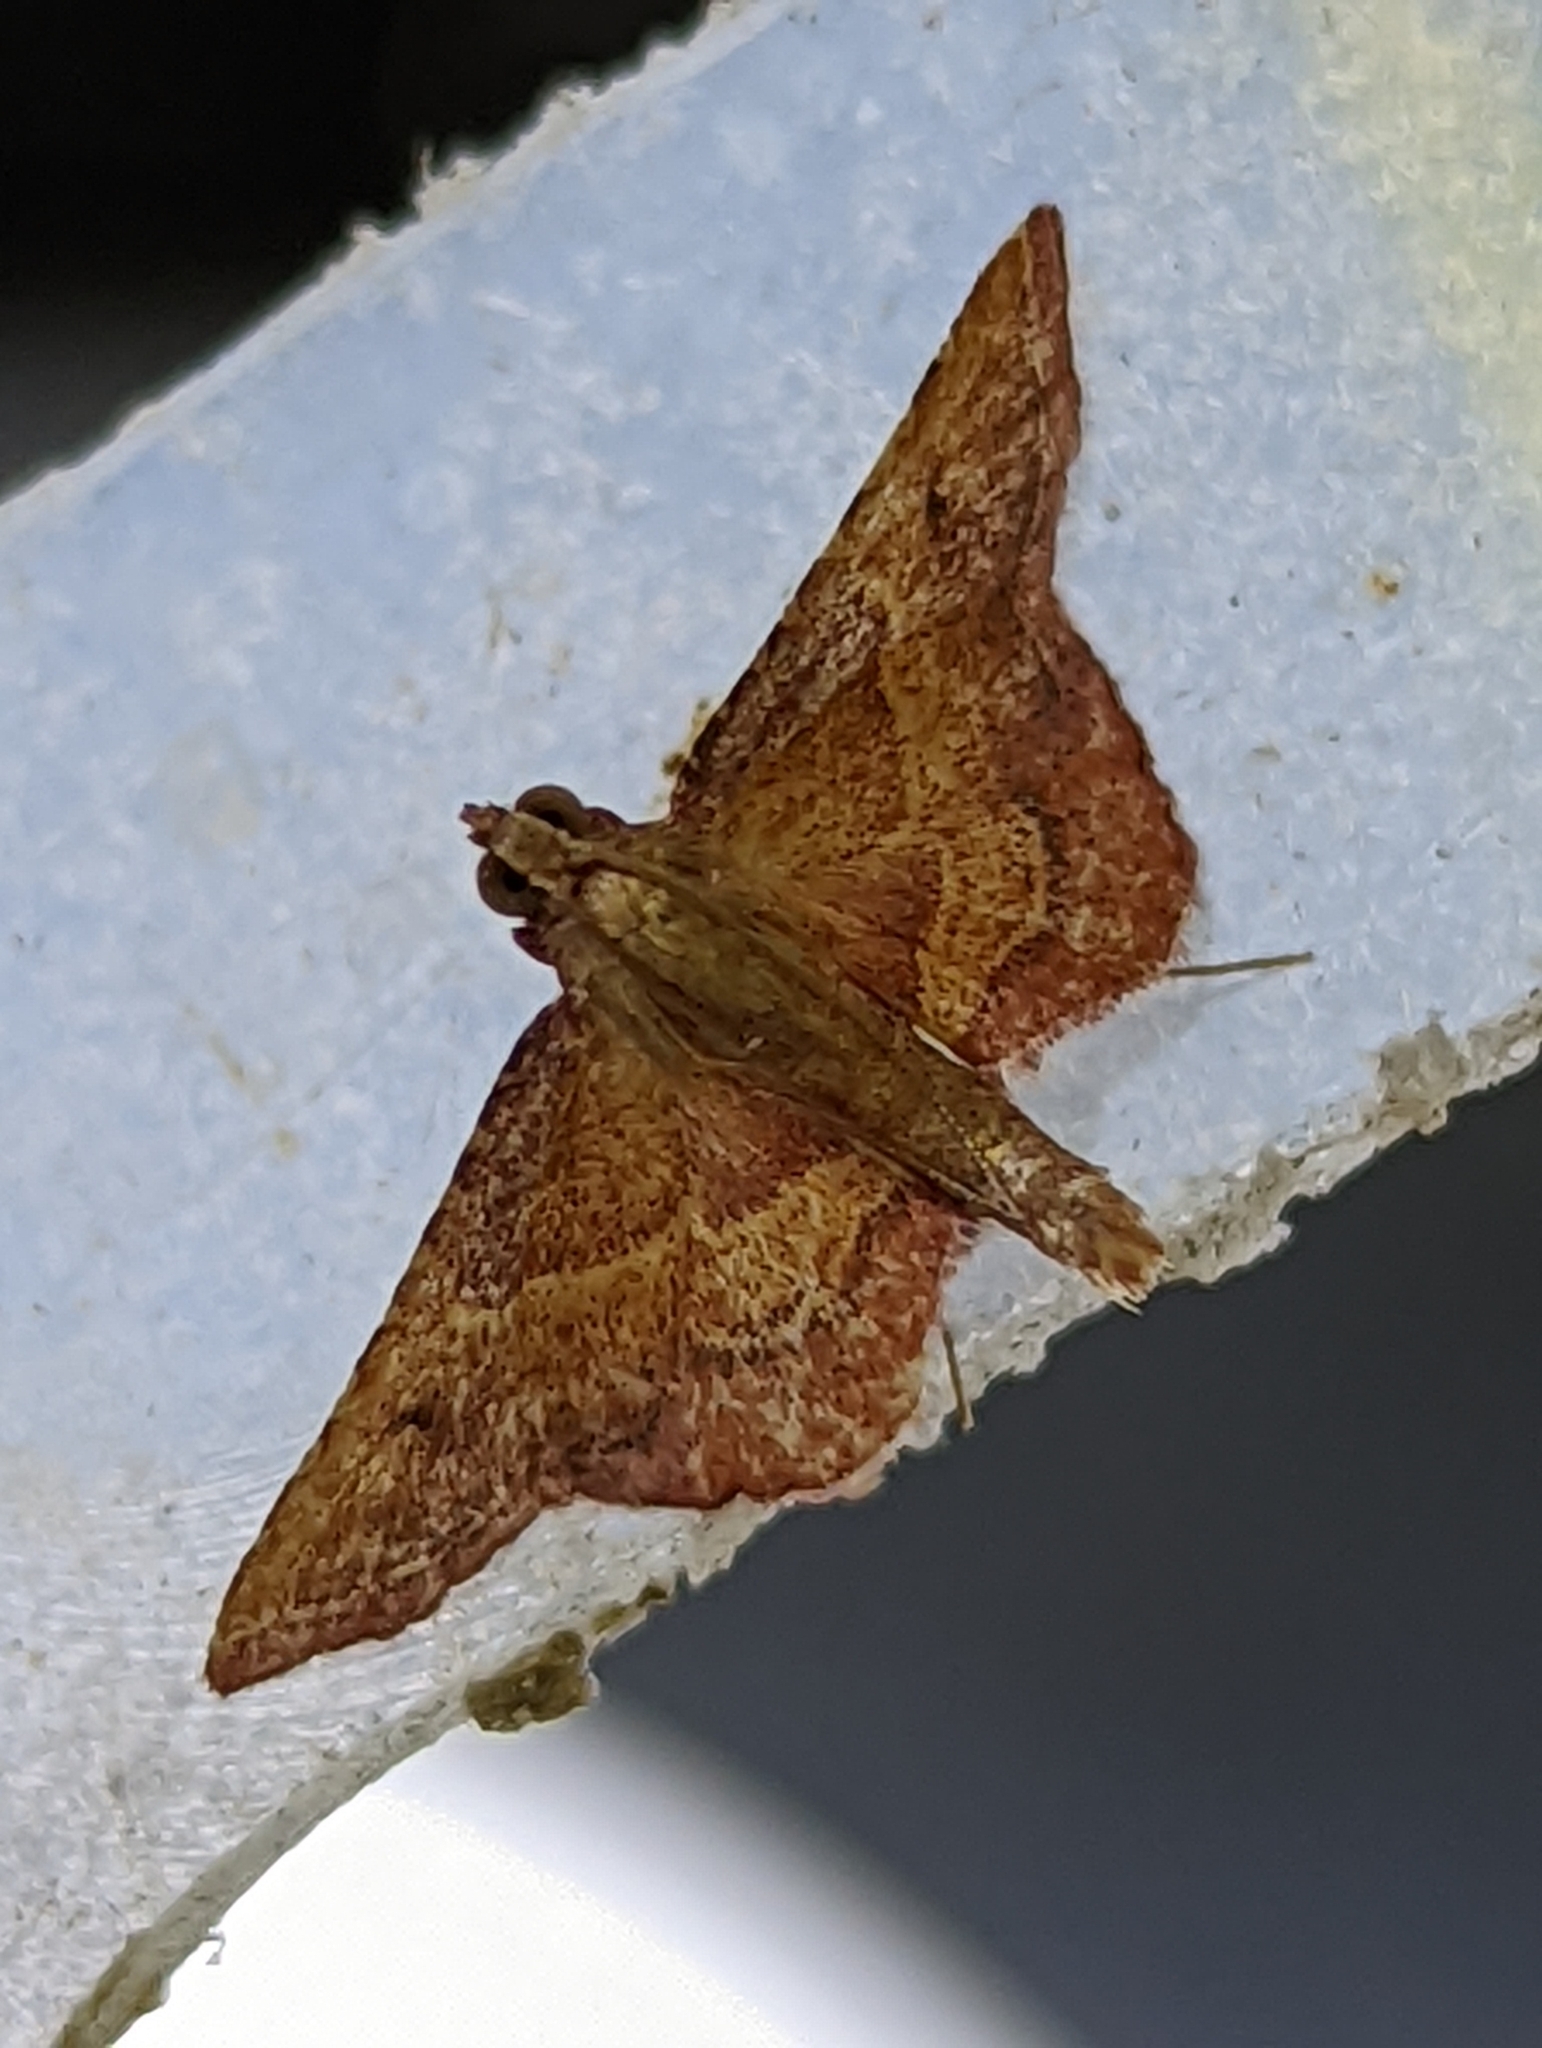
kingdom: Animalia
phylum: Arthropoda
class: Insecta
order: Lepidoptera
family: Pyralidae
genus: Endotricha
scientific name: Endotricha flammealis
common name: Rosy tabby
